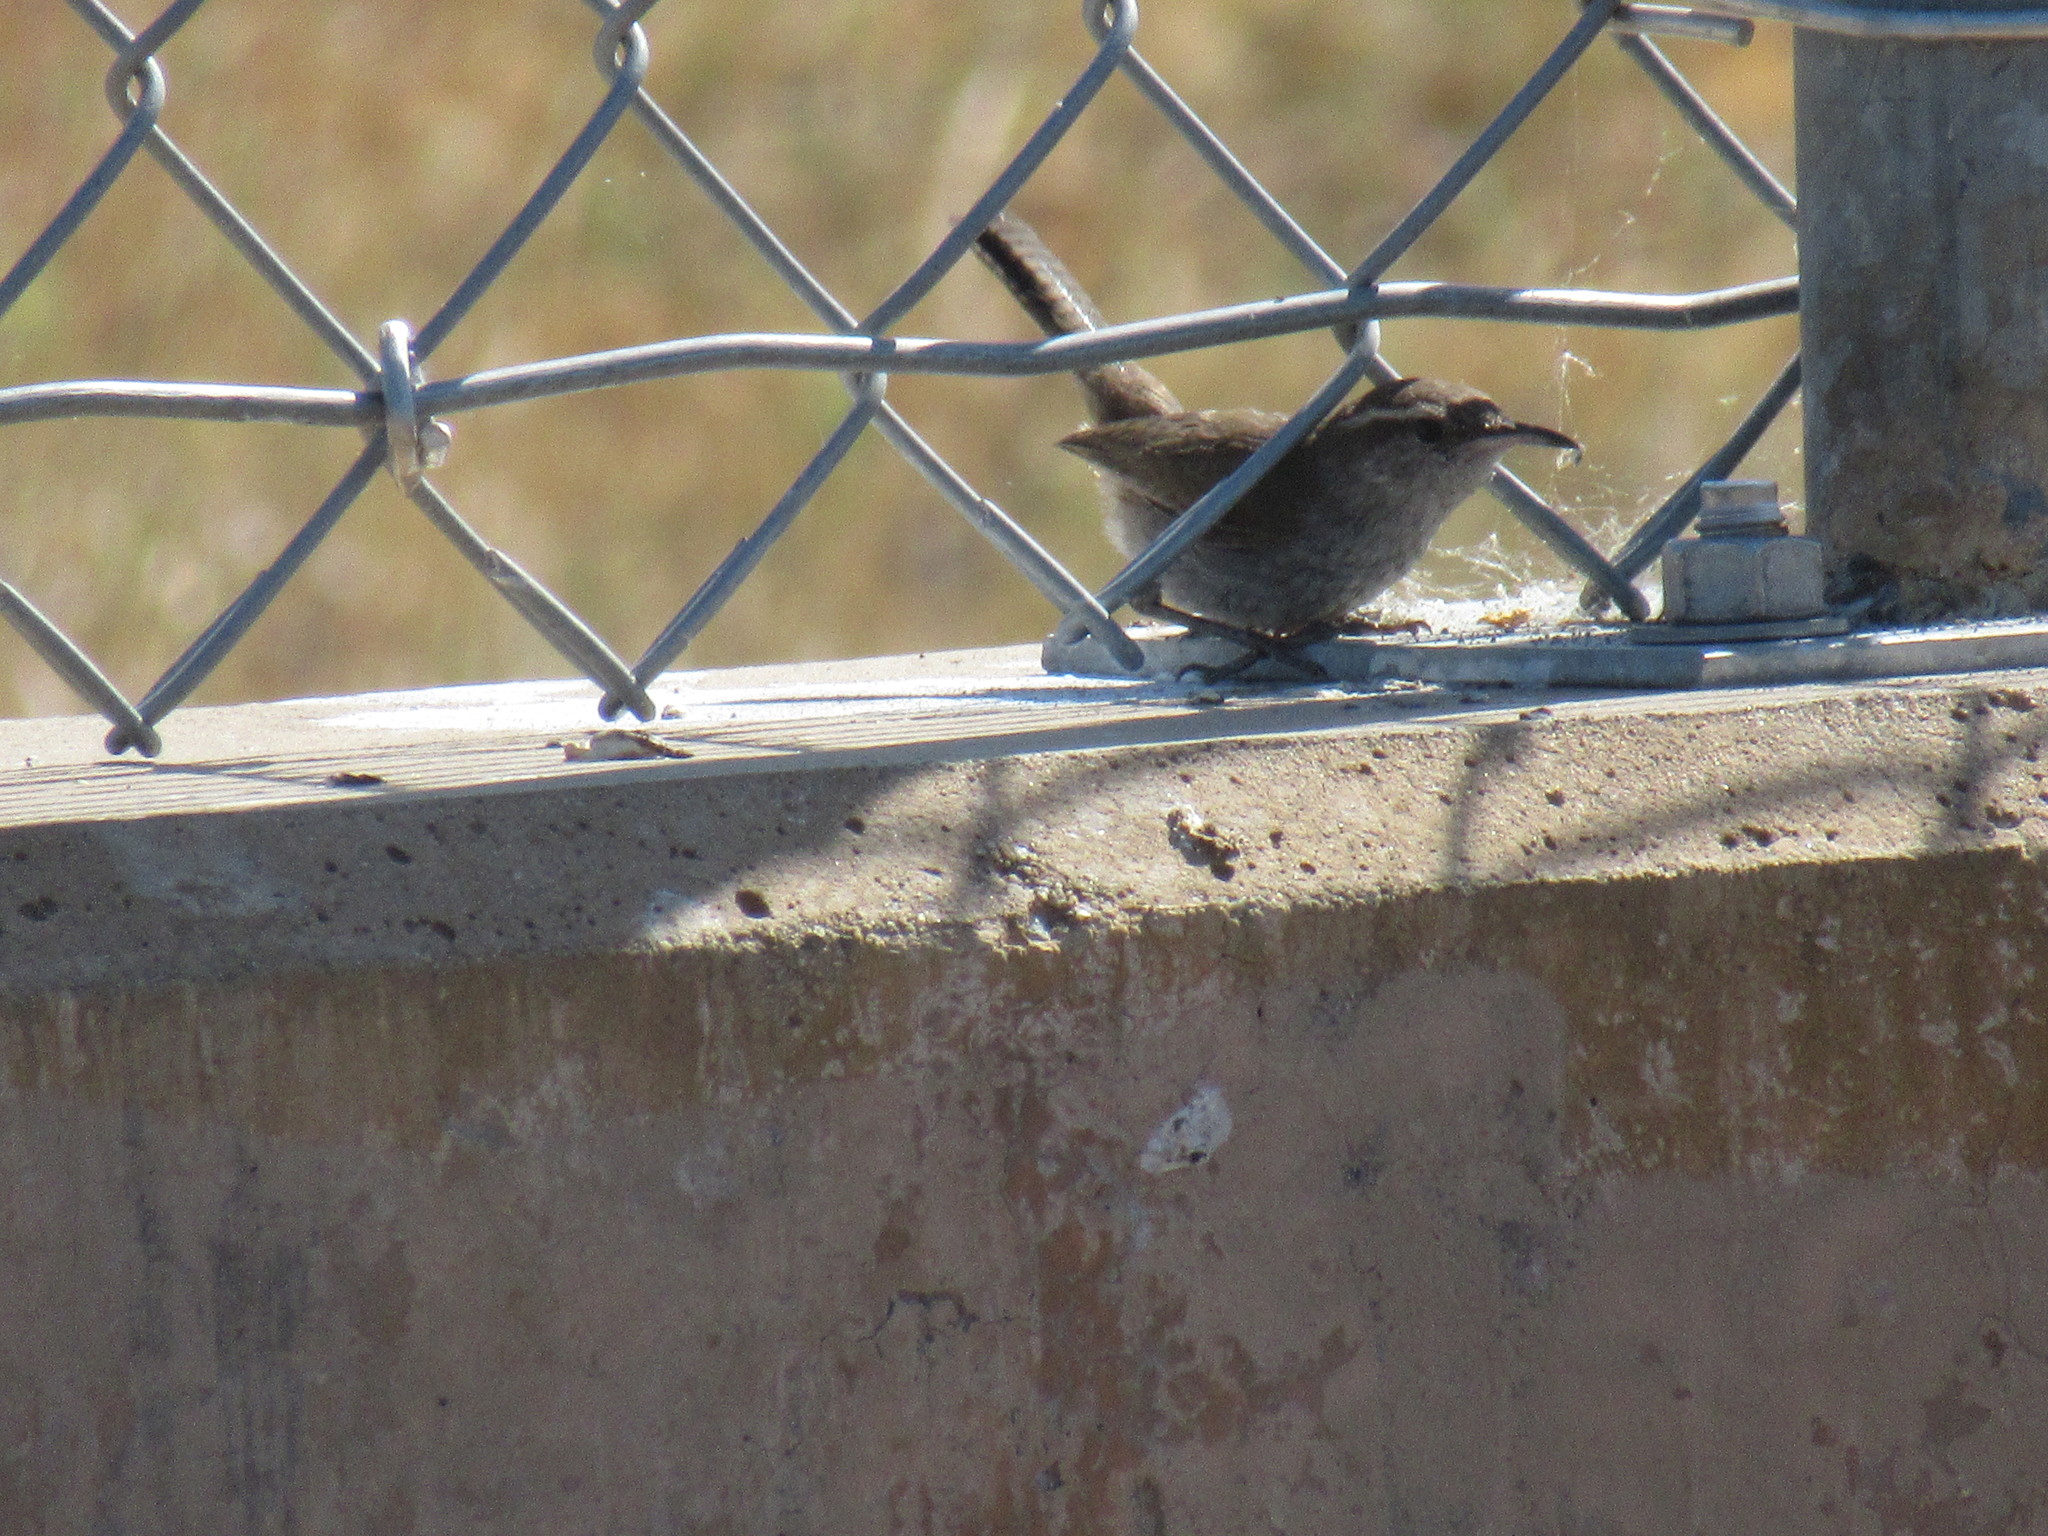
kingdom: Animalia
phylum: Chordata
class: Aves
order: Passeriformes
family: Troglodytidae
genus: Thryomanes
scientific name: Thryomanes bewickii
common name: Bewick's wren
